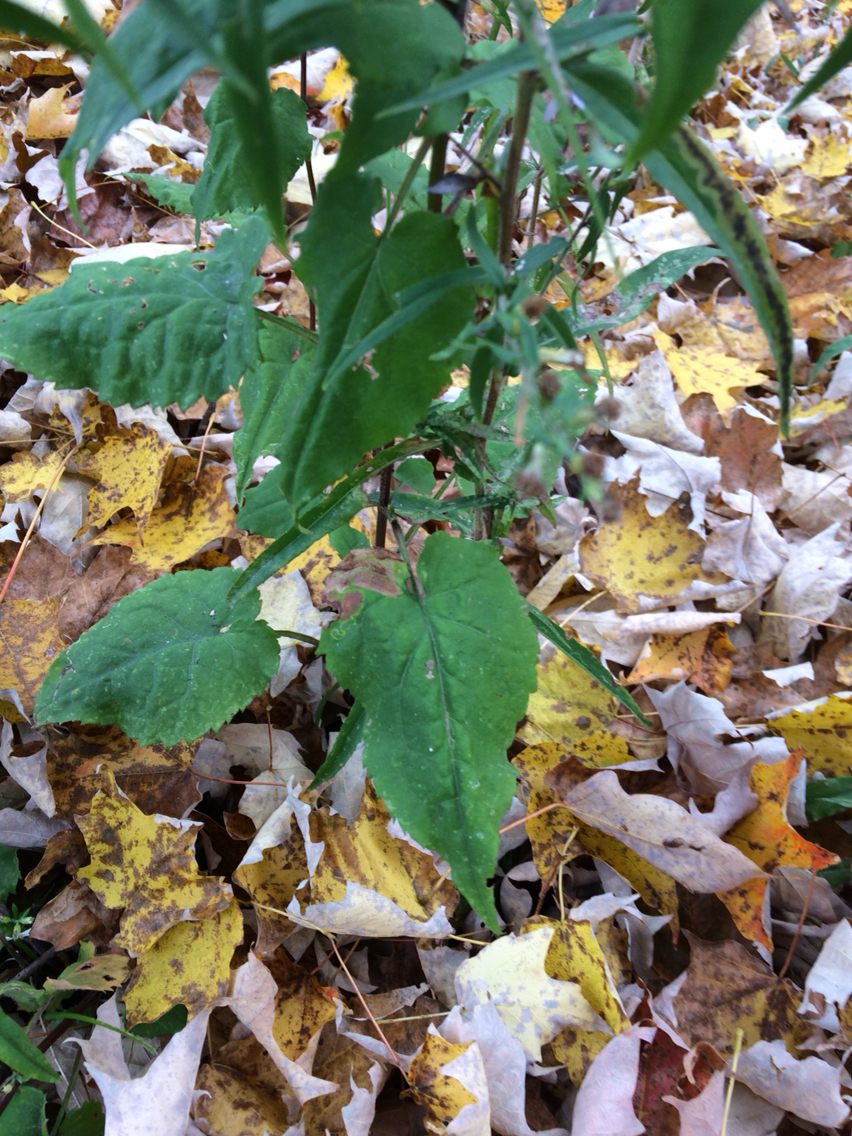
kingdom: Plantae
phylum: Tracheophyta
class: Magnoliopsida
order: Asterales
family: Asteraceae
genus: Symphyotrichum
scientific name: Symphyotrichum cordifolium
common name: Beeweed
